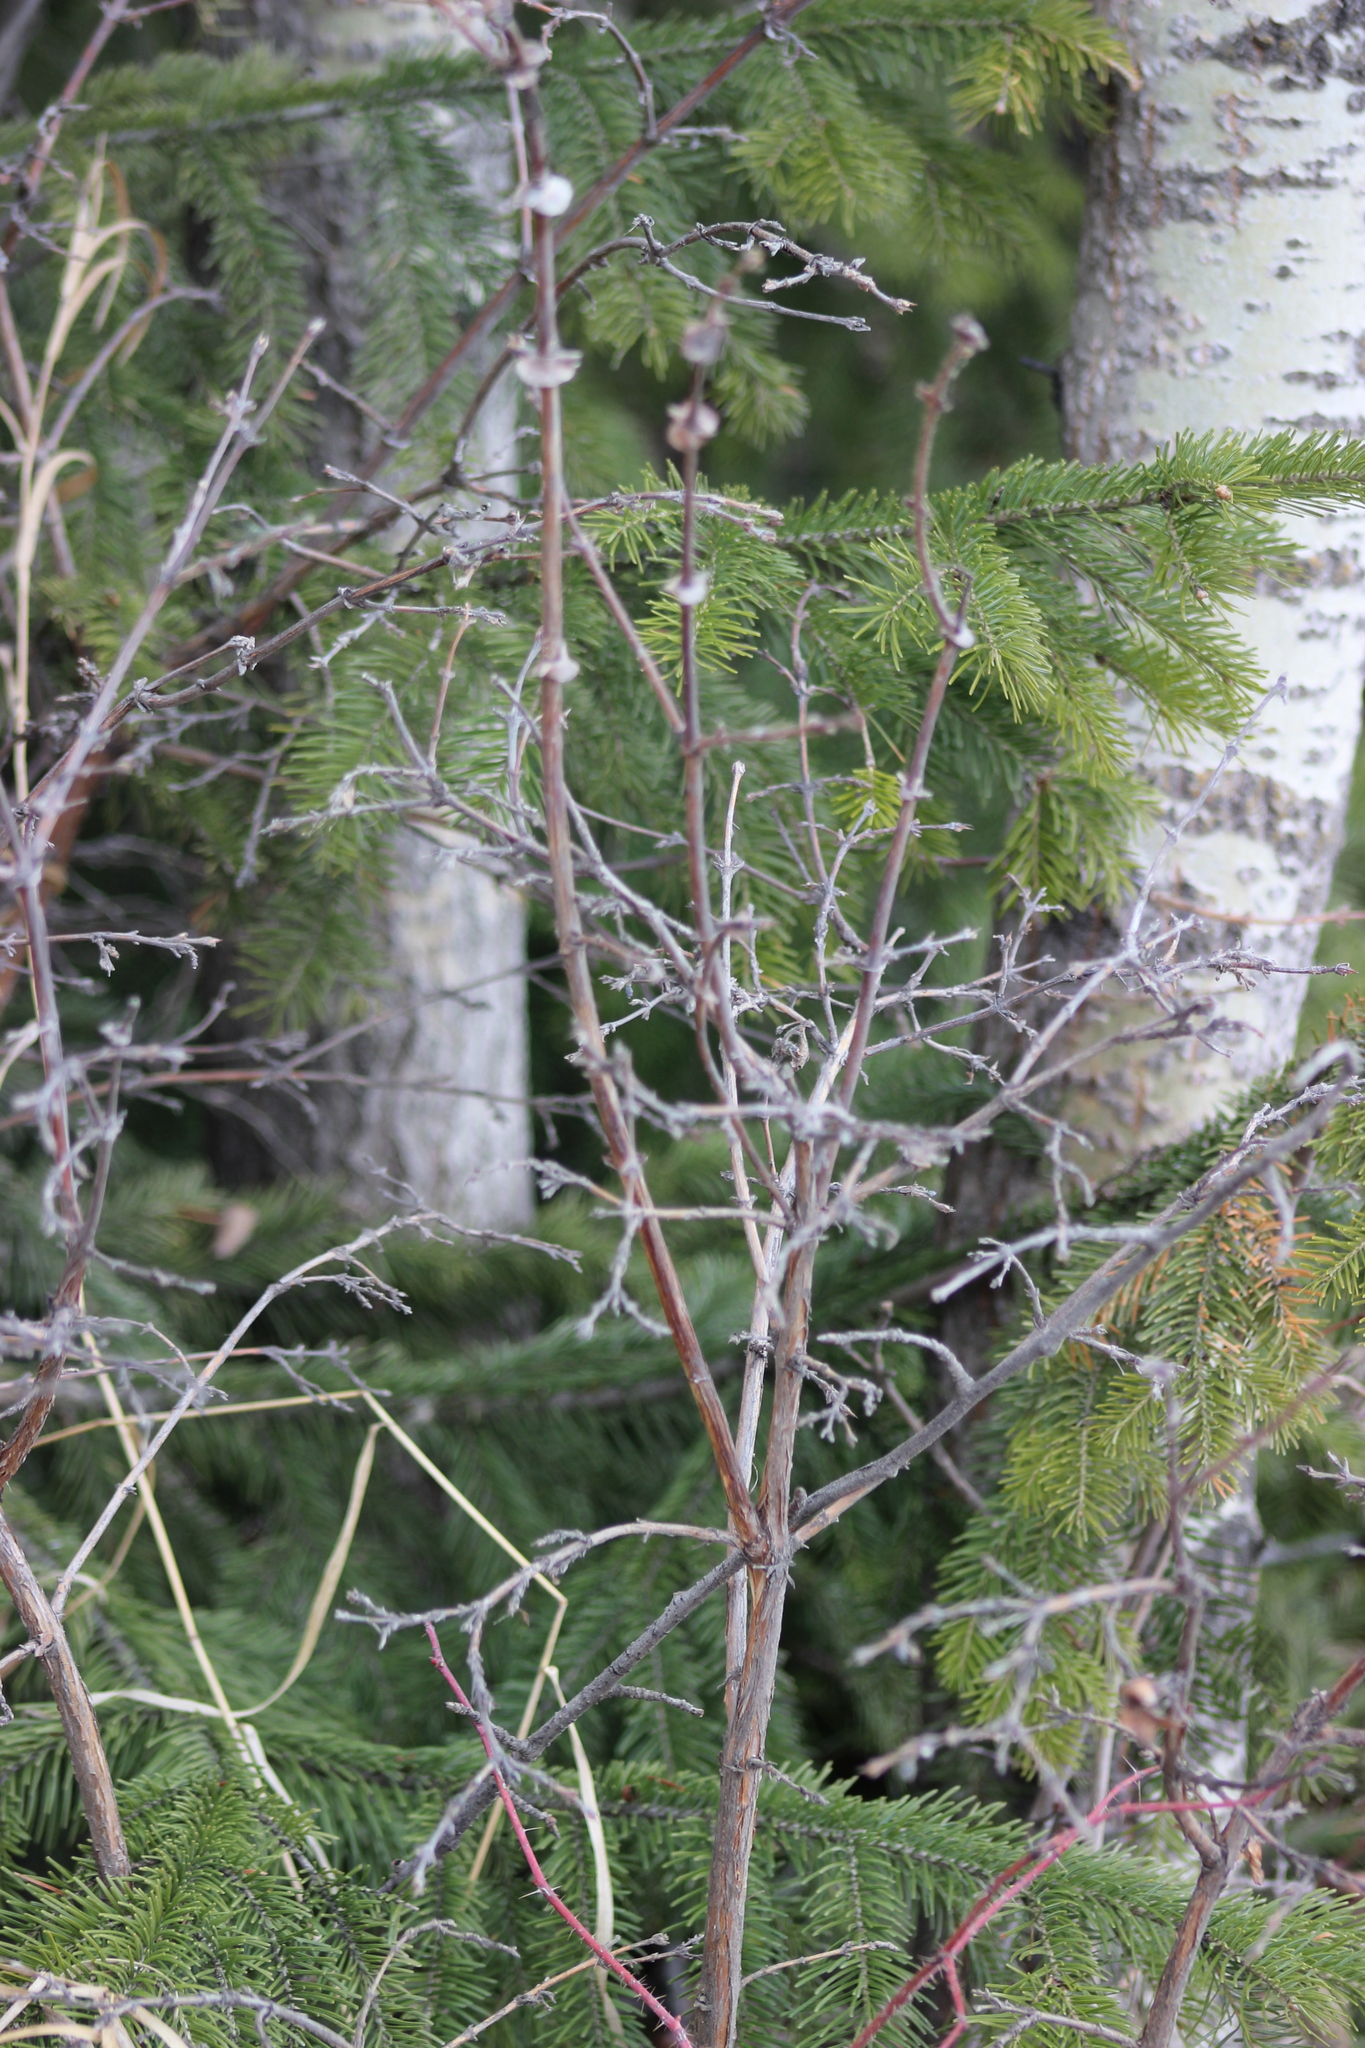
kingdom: Plantae
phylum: Tracheophyta
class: Magnoliopsida
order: Dipsacales
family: Caprifoliaceae
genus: Lonicera
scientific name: Lonicera caerulea
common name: Blue honeysuckle
